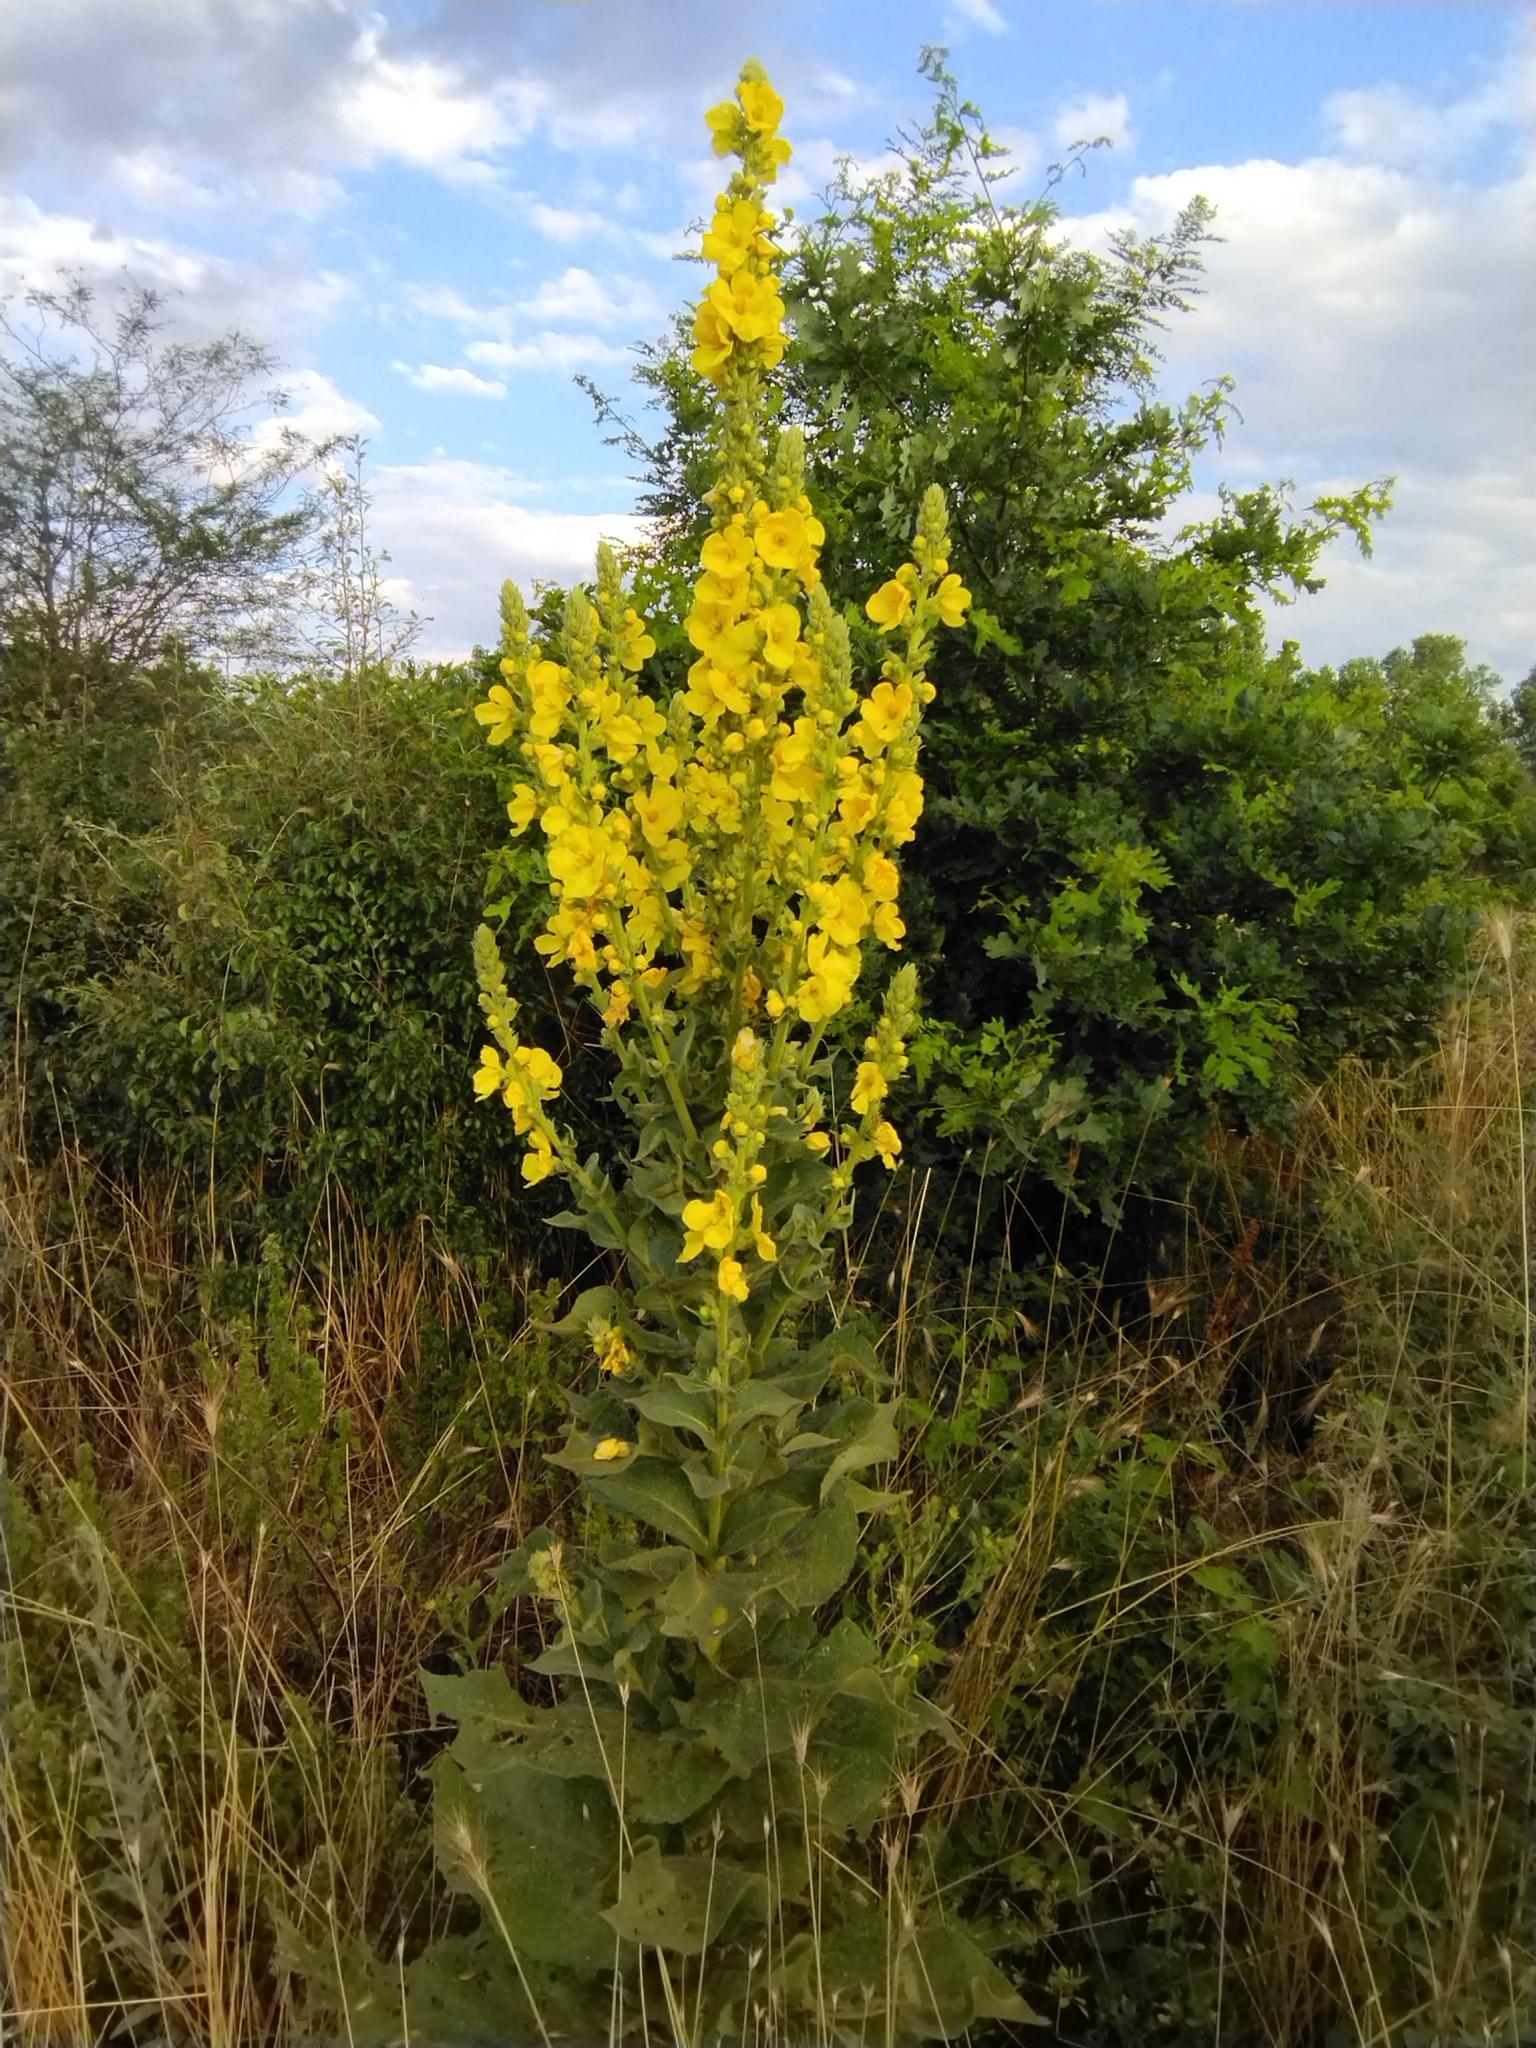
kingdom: Plantae
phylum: Tracheophyta
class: Magnoliopsida
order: Lamiales
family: Scrophulariaceae
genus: Verbascum
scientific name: Verbascum speciosum
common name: Hungarian mullein
